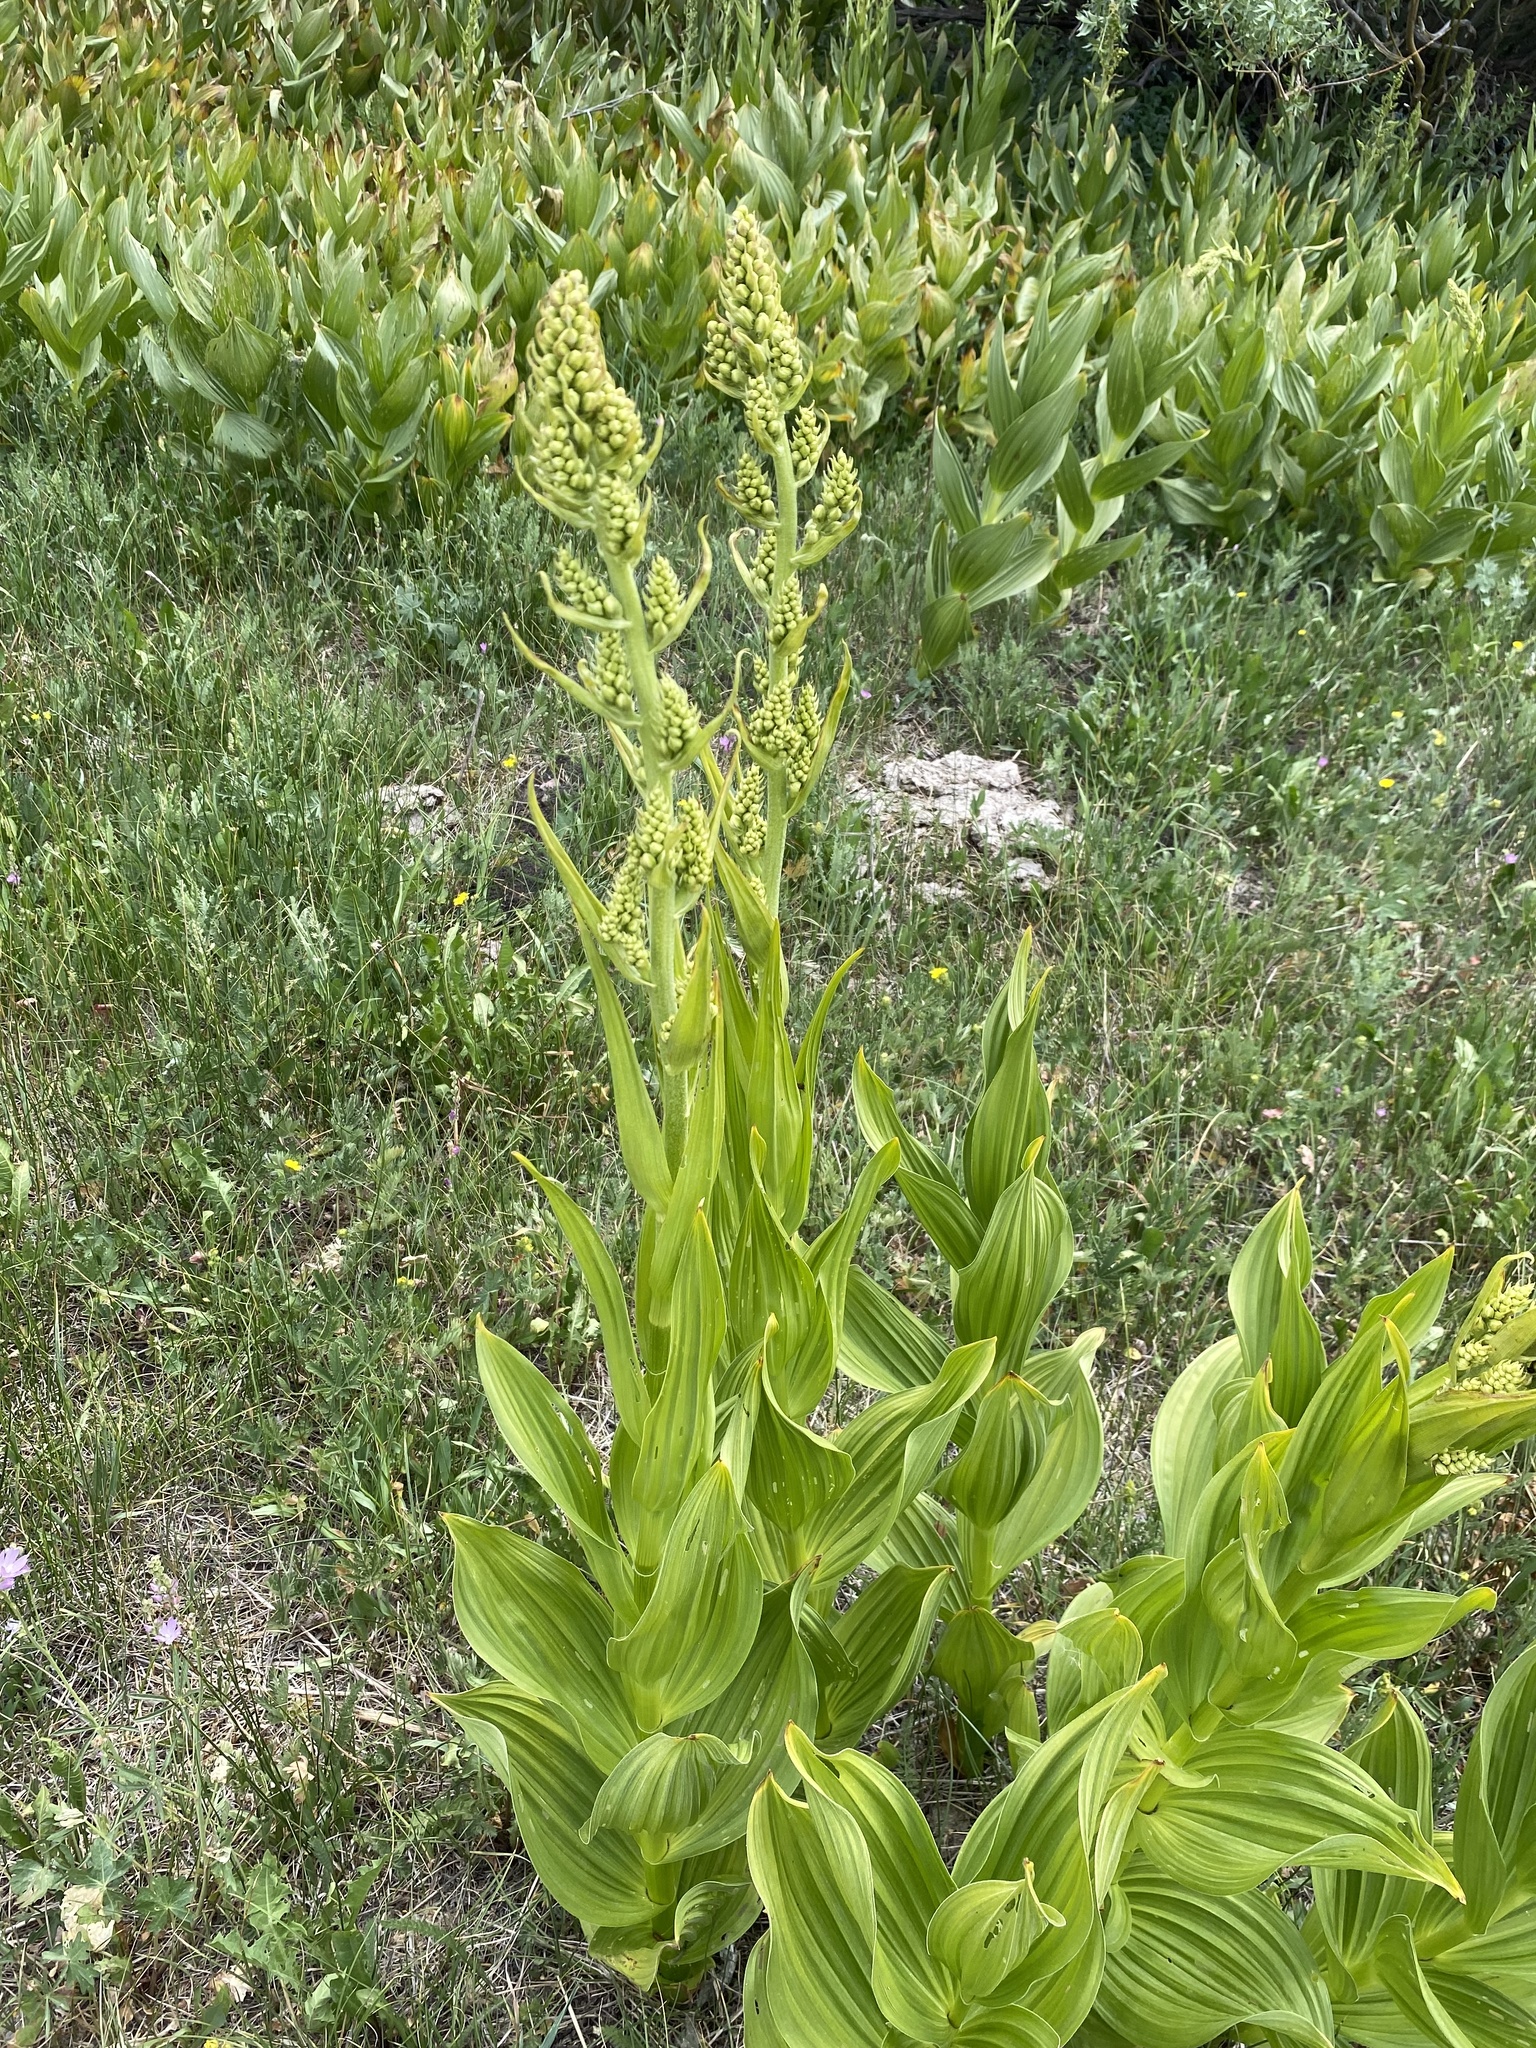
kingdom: Plantae
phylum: Tracheophyta
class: Liliopsida
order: Liliales
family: Melanthiaceae
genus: Veratrum
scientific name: Veratrum californicum
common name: California veratrum
